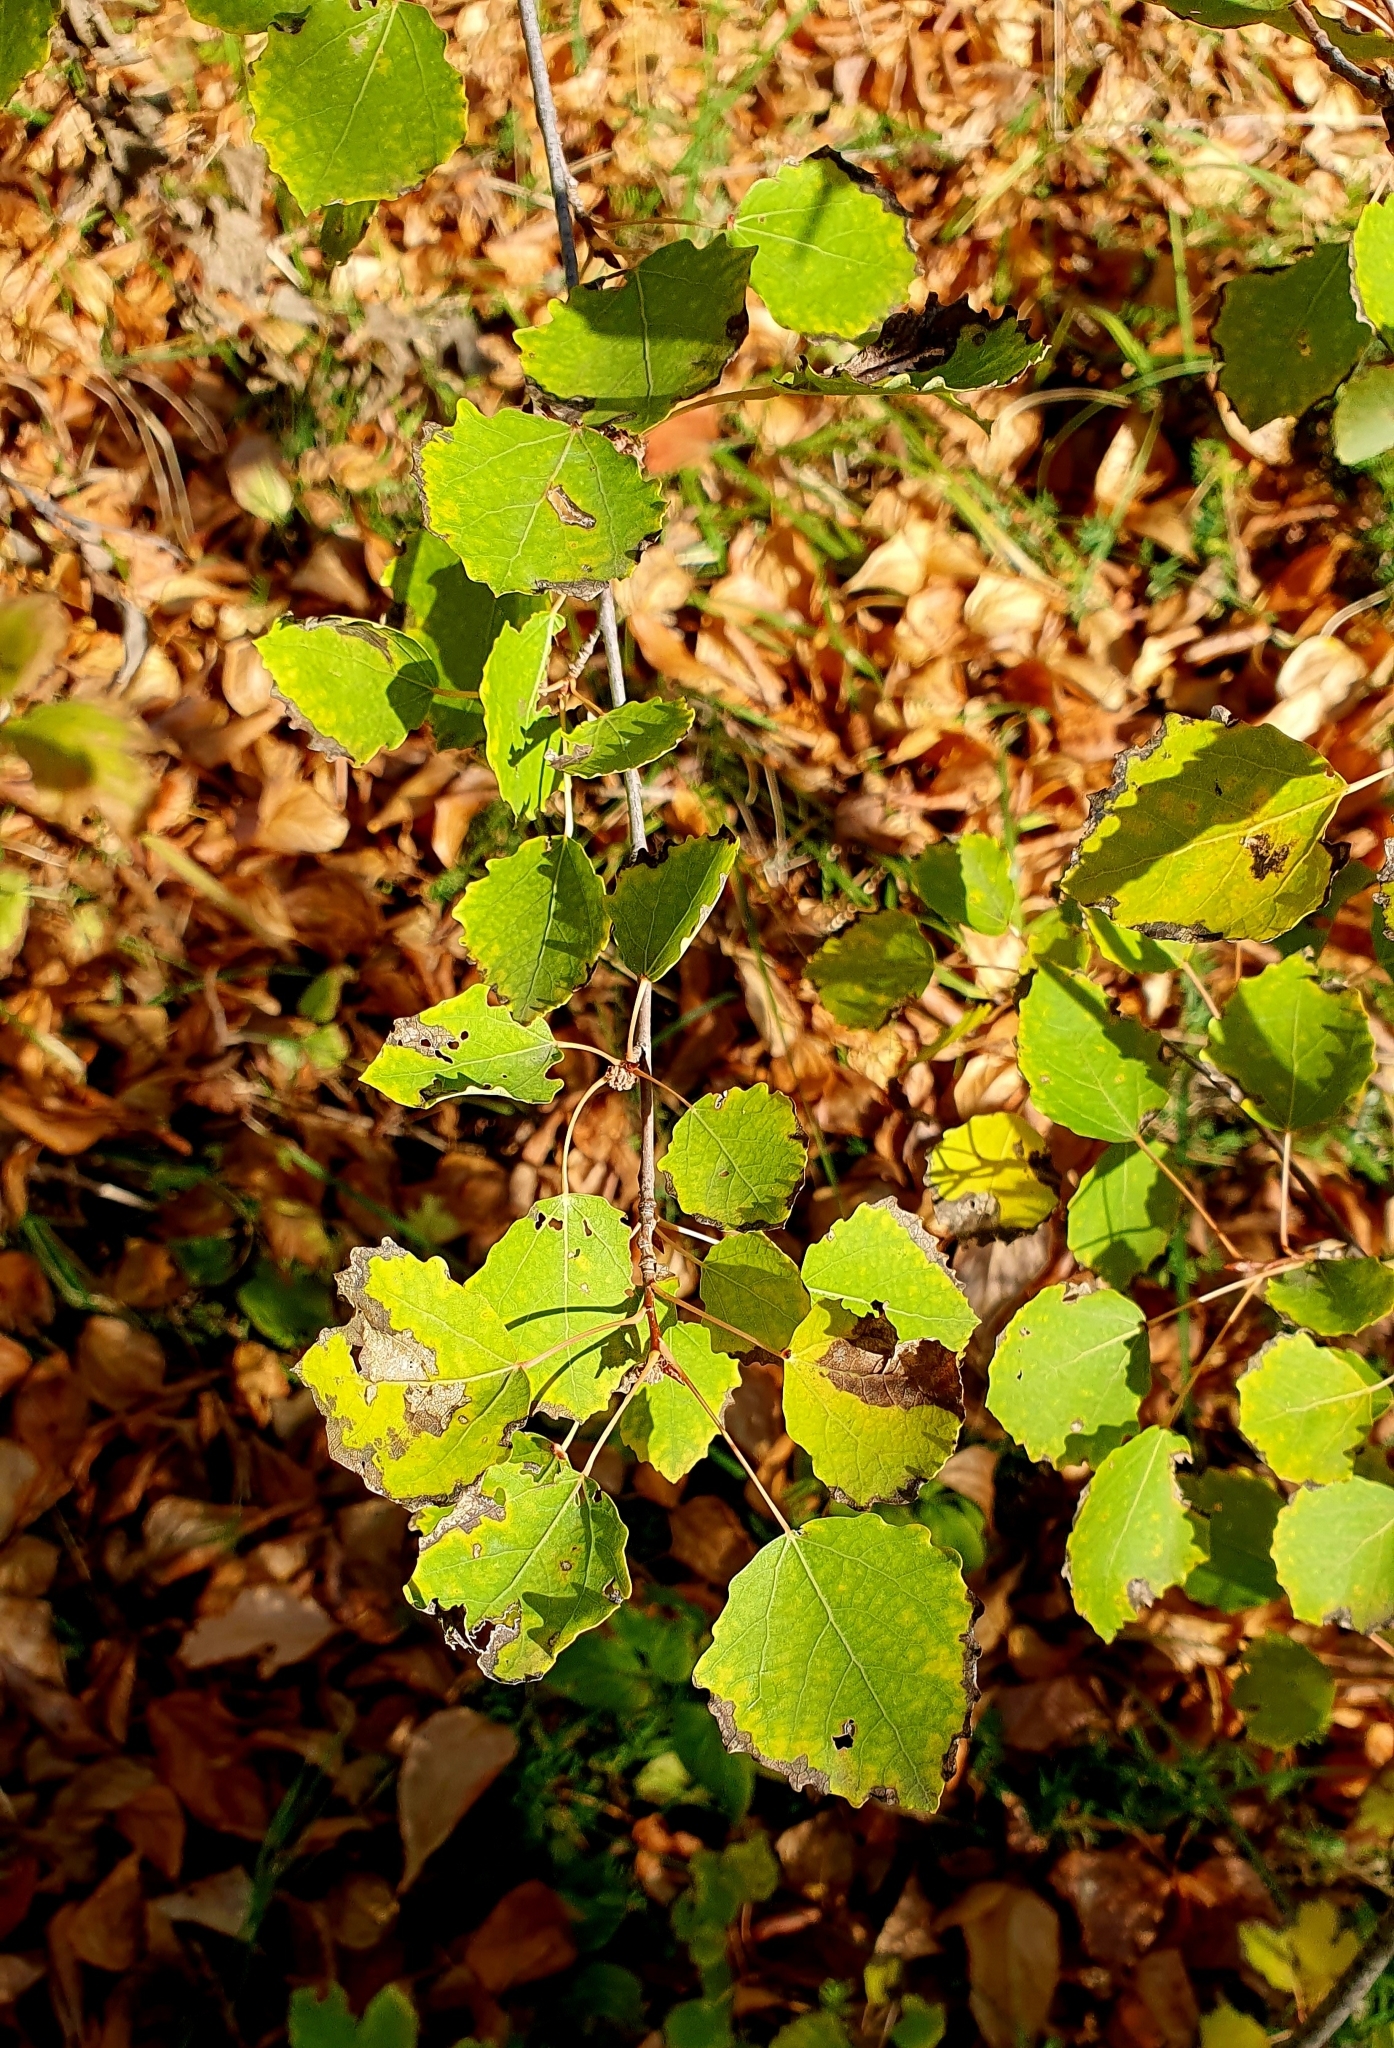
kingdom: Plantae
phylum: Tracheophyta
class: Magnoliopsida
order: Malpighiales
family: Salicaceae
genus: Populus
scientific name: Populus tremula
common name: European aspen
